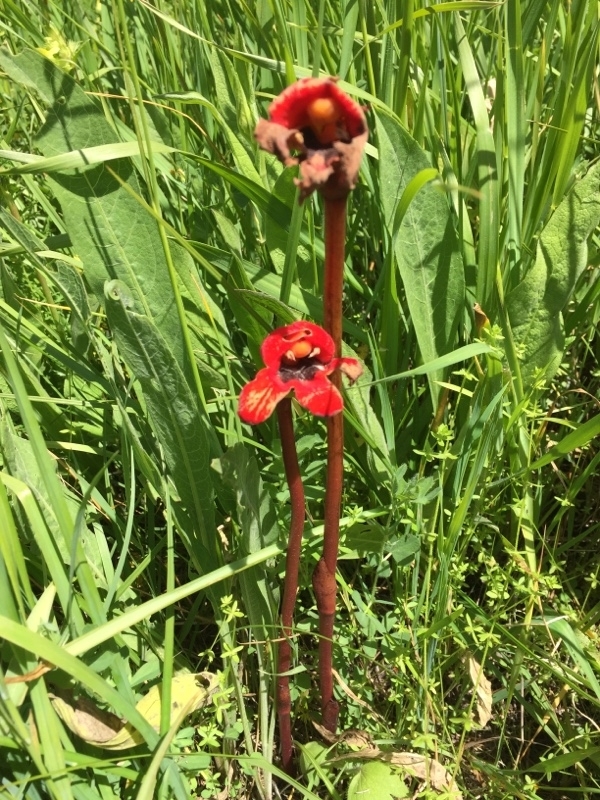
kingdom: Plantae
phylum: Tracheophyta
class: Magnoliopsida
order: Lamiales
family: Orobanchaceae
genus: Diphelypaea
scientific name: Diphelypaea coccinea
